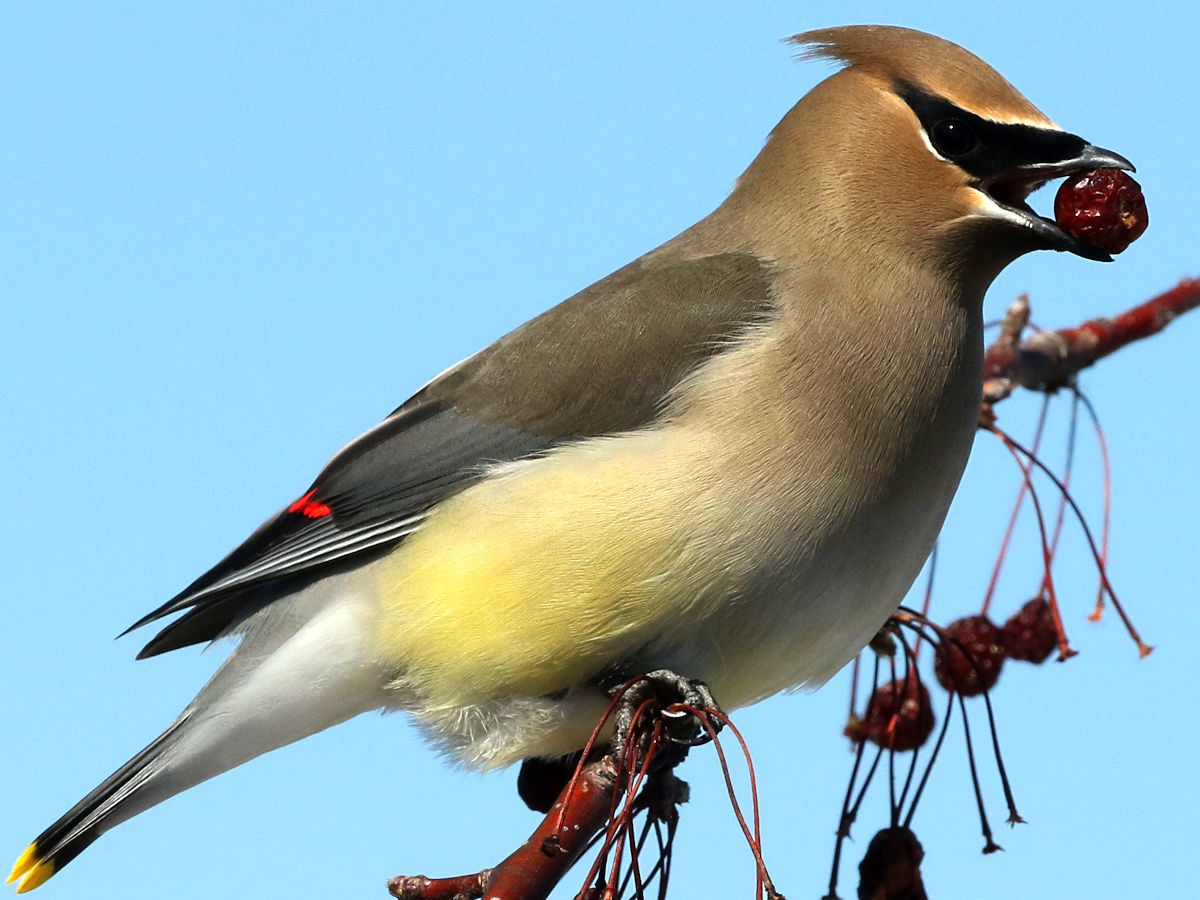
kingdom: Animalia
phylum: Chordata
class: Aves
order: Passeriformes
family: Bombycillidae
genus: Bombycilla
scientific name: Bombycilla cedrorum
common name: Cedar waxwing
